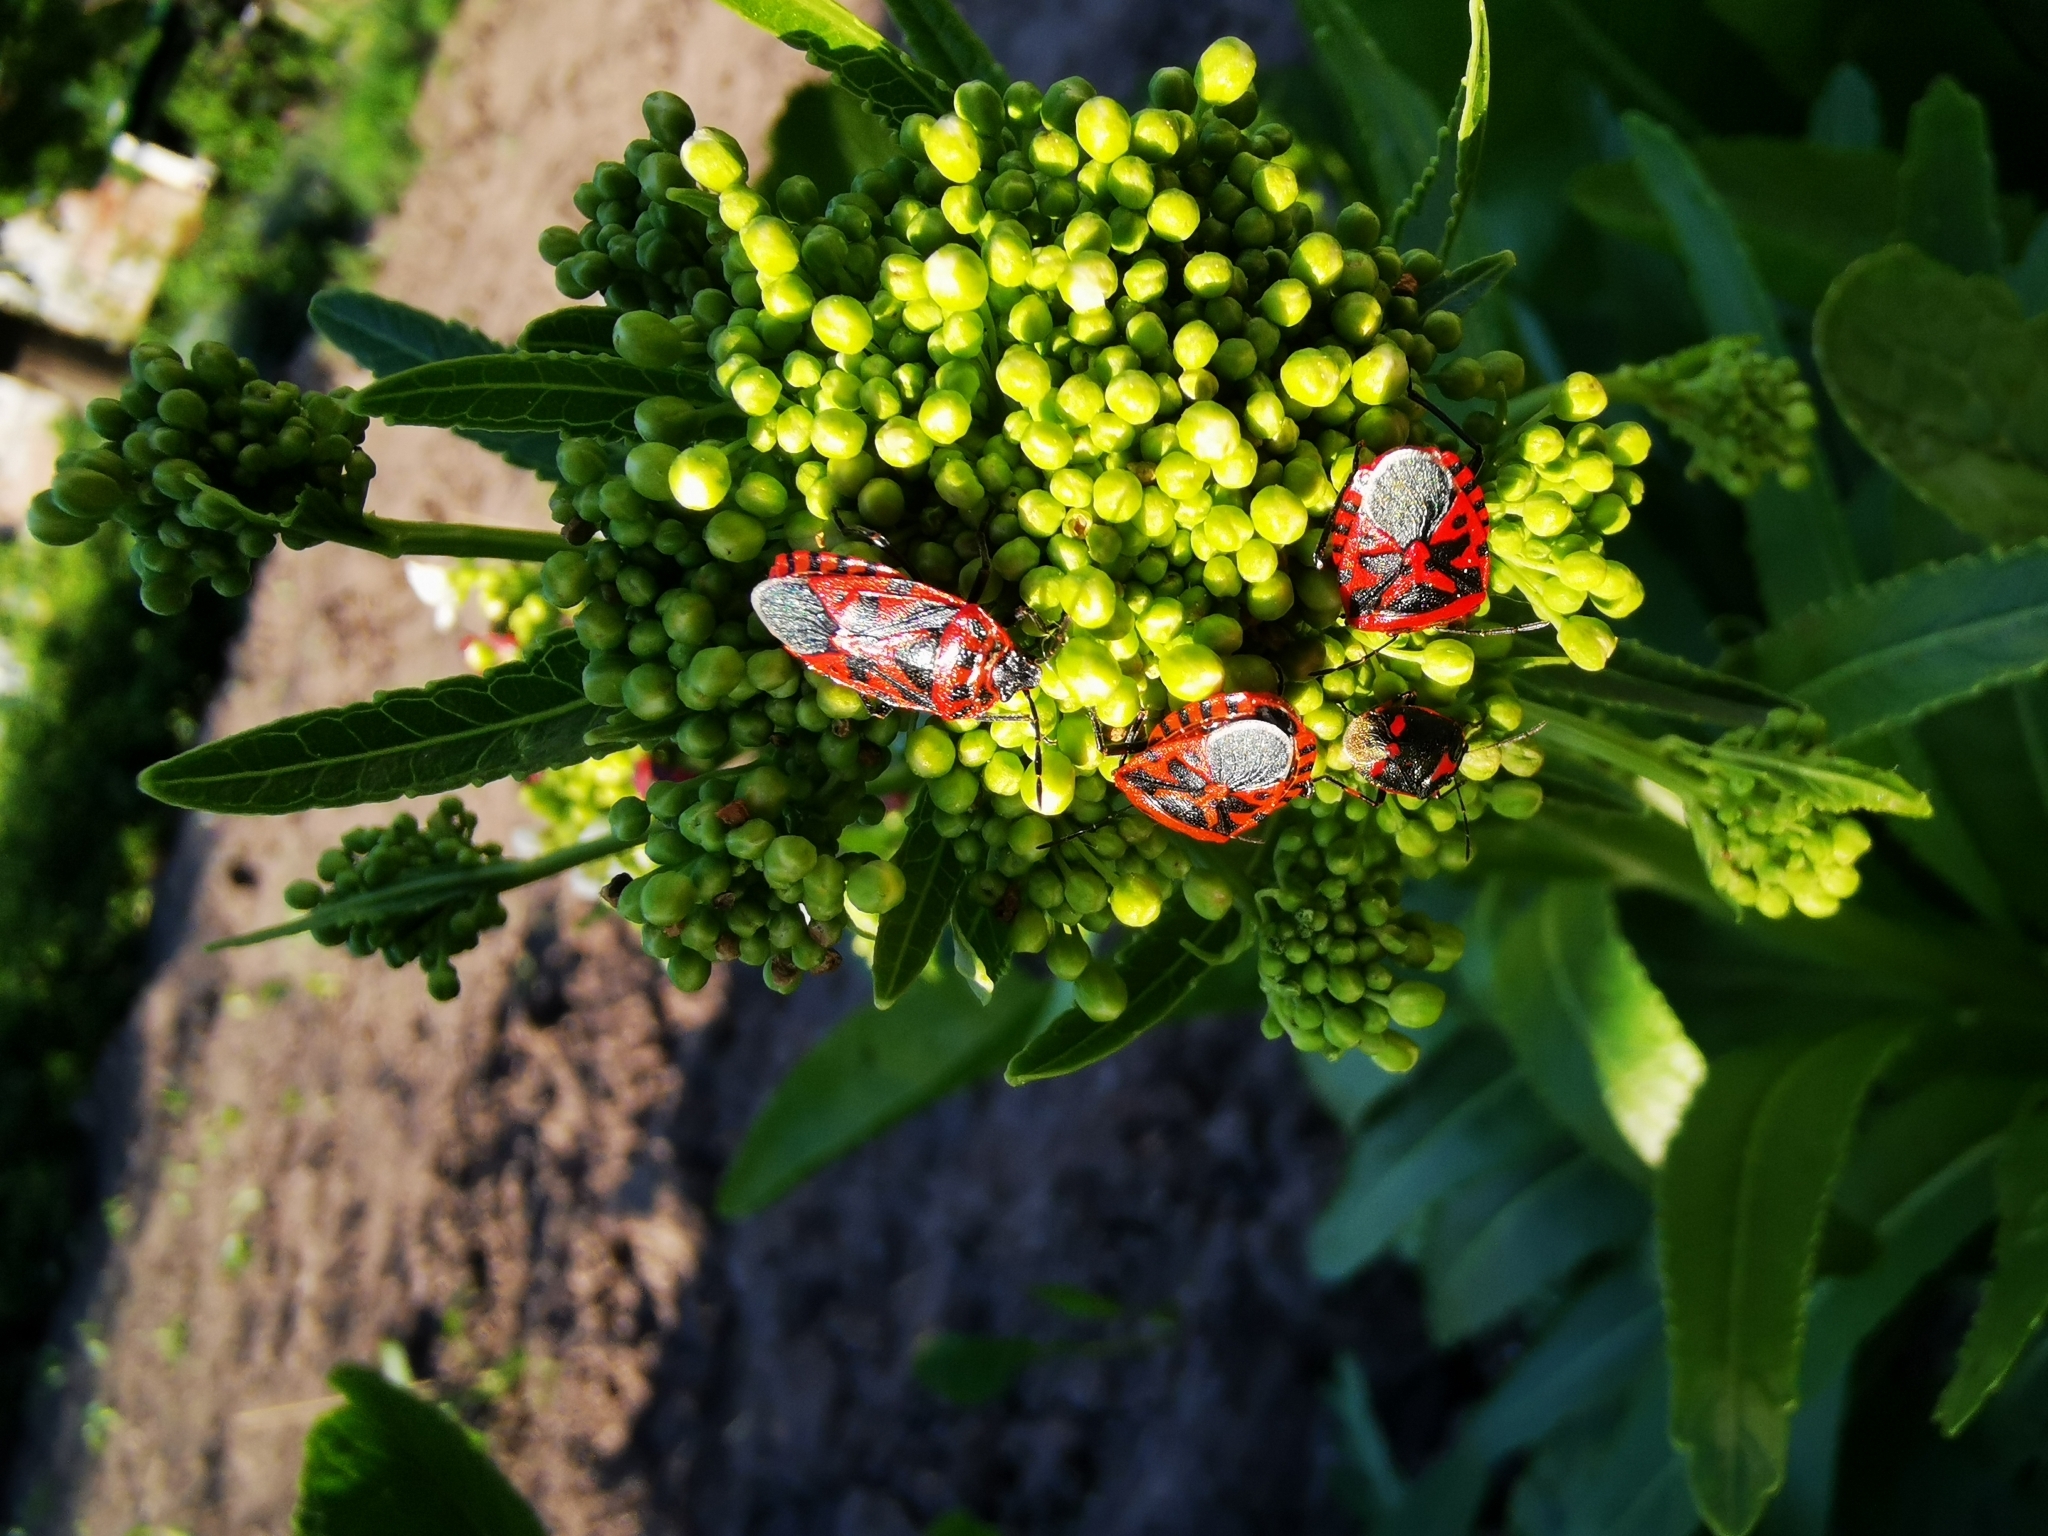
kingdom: Animalia
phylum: Arthropoda
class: Insecta
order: Hemiptera
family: Pentatomidae
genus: Eurydema
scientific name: Eurydema ventralis
